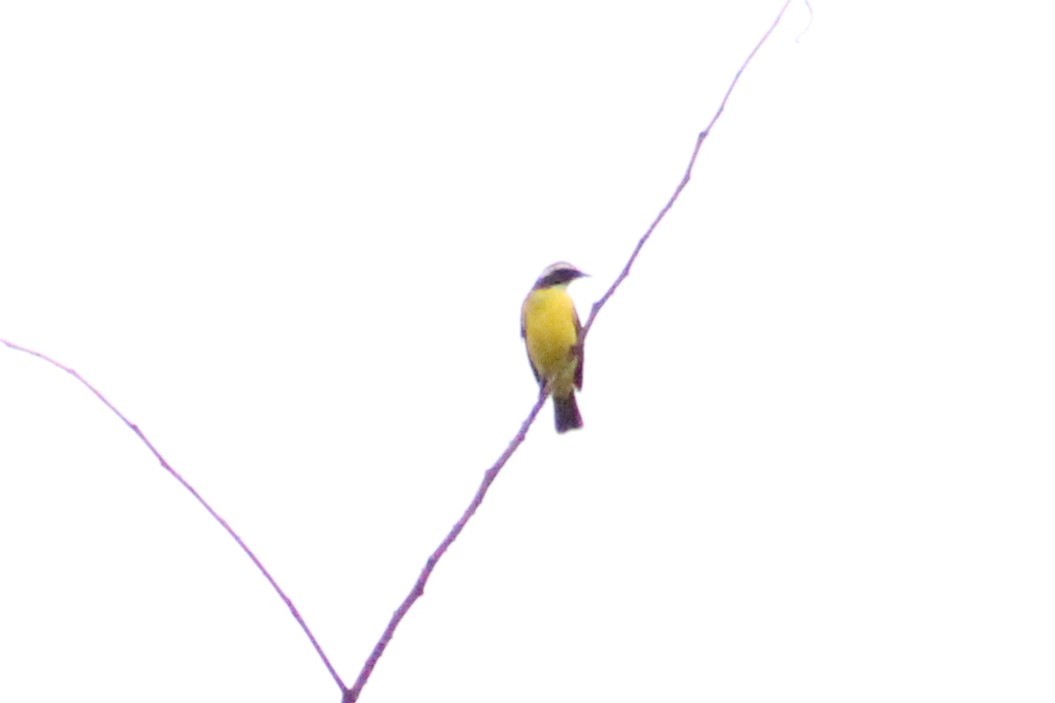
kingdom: Animalia
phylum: Chordata
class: Aves
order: Passeriformes
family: Tyrannidae
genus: Myiozetetes
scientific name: Myiozetetes similis
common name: Social flycatcher
